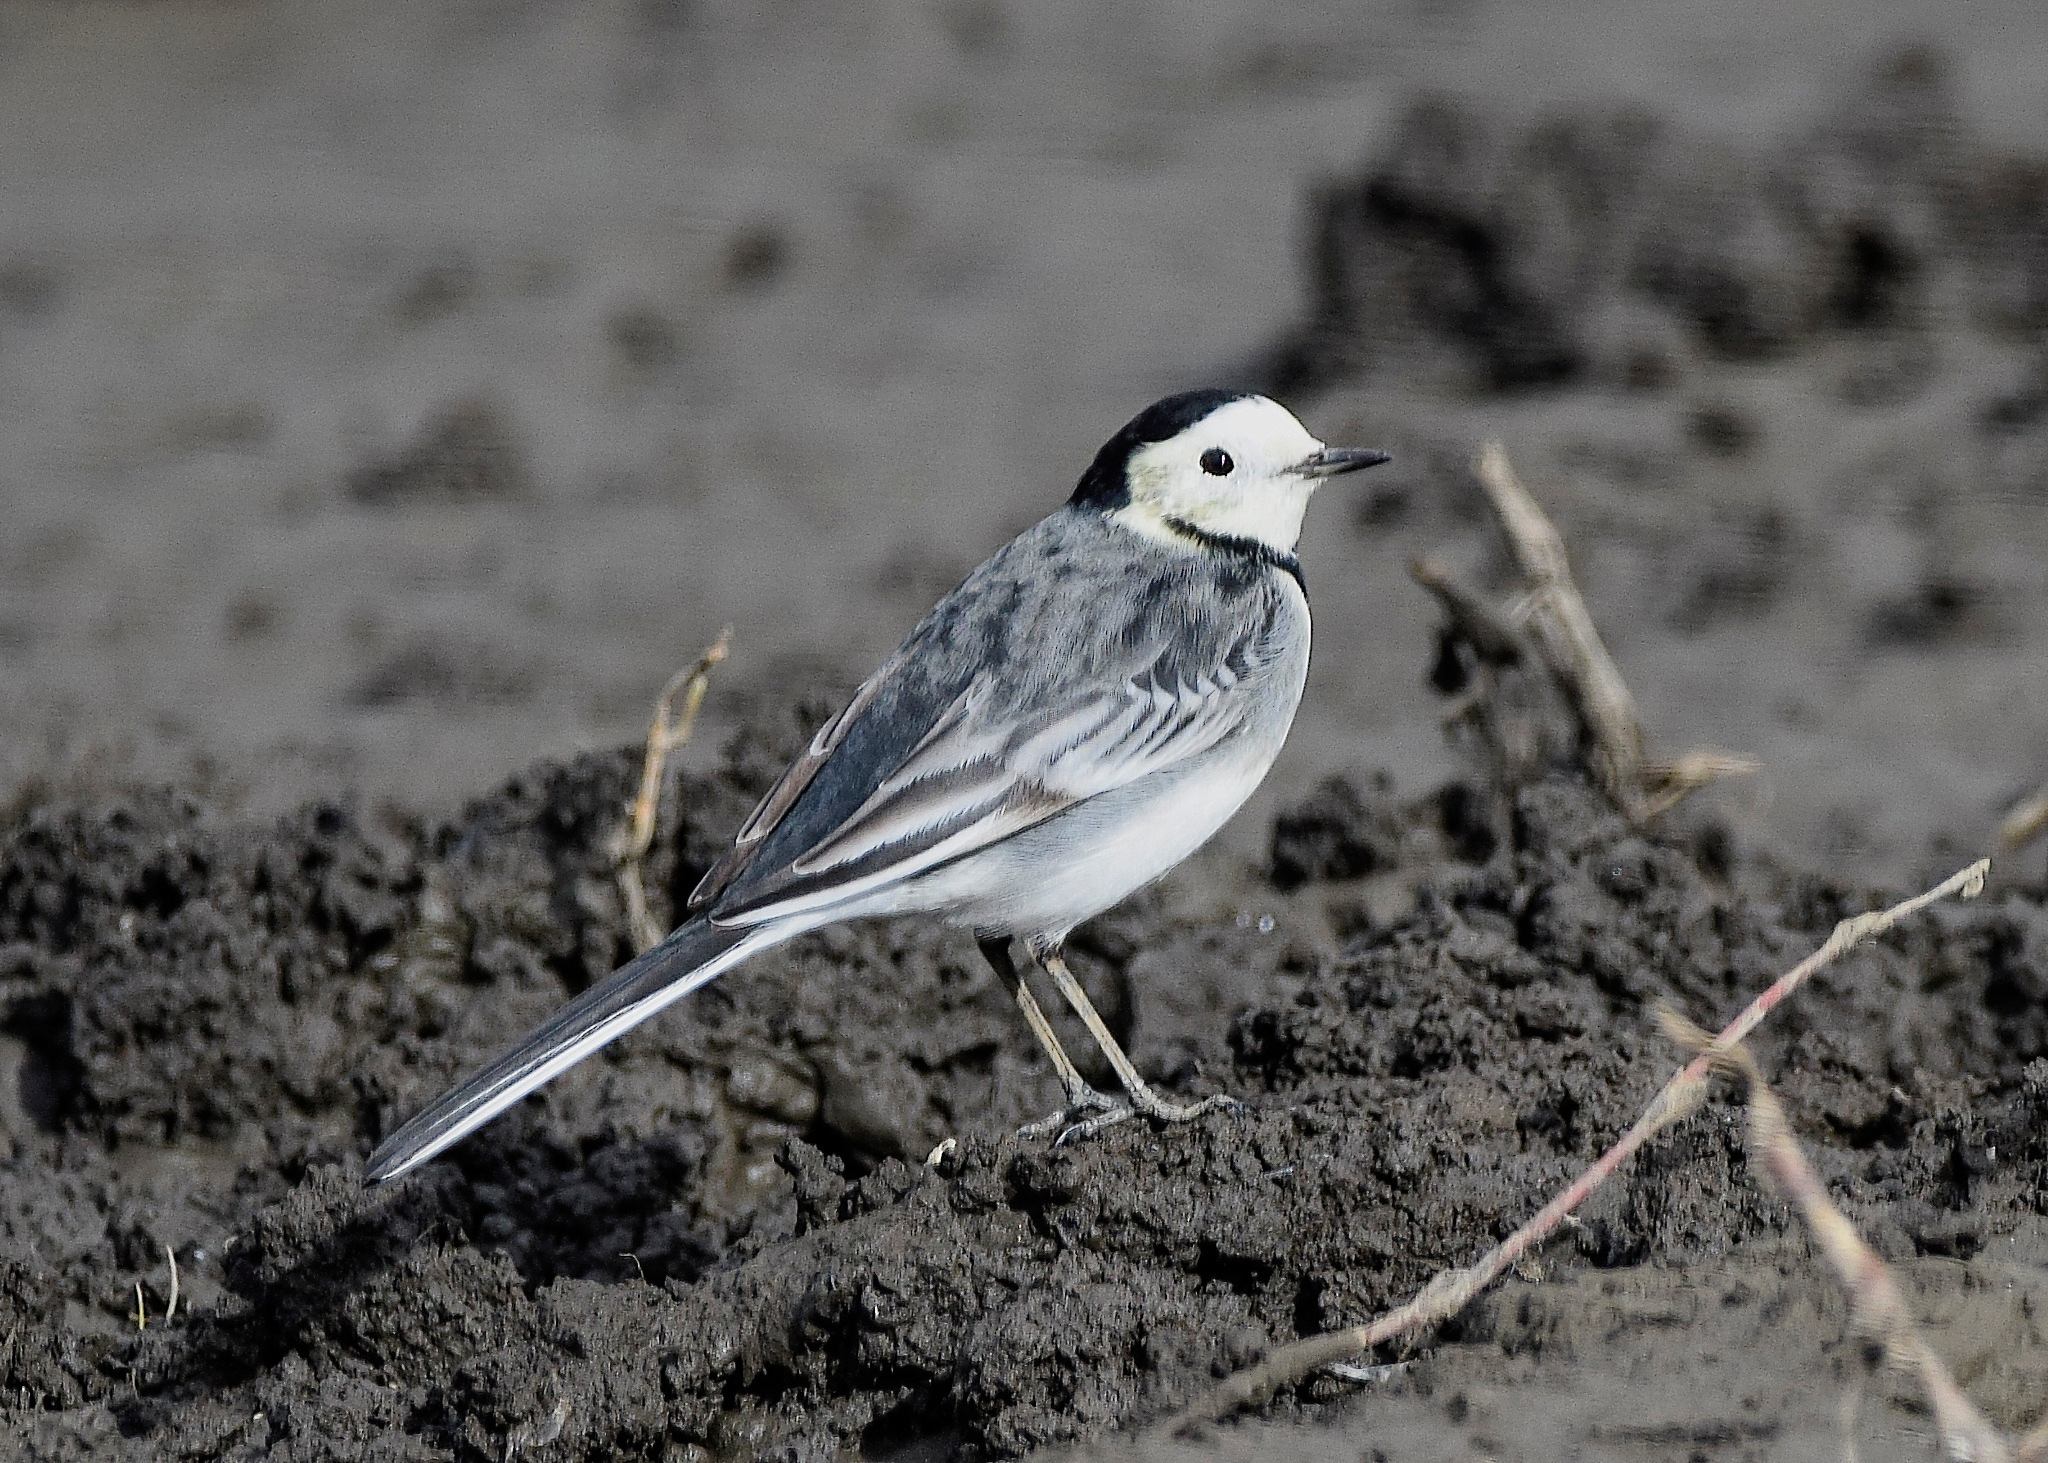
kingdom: Animalia
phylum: Chordata
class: Aves
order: Passeriformes
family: Motacillidae
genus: Motacilla
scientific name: Motacilla alba
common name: White wagtail
